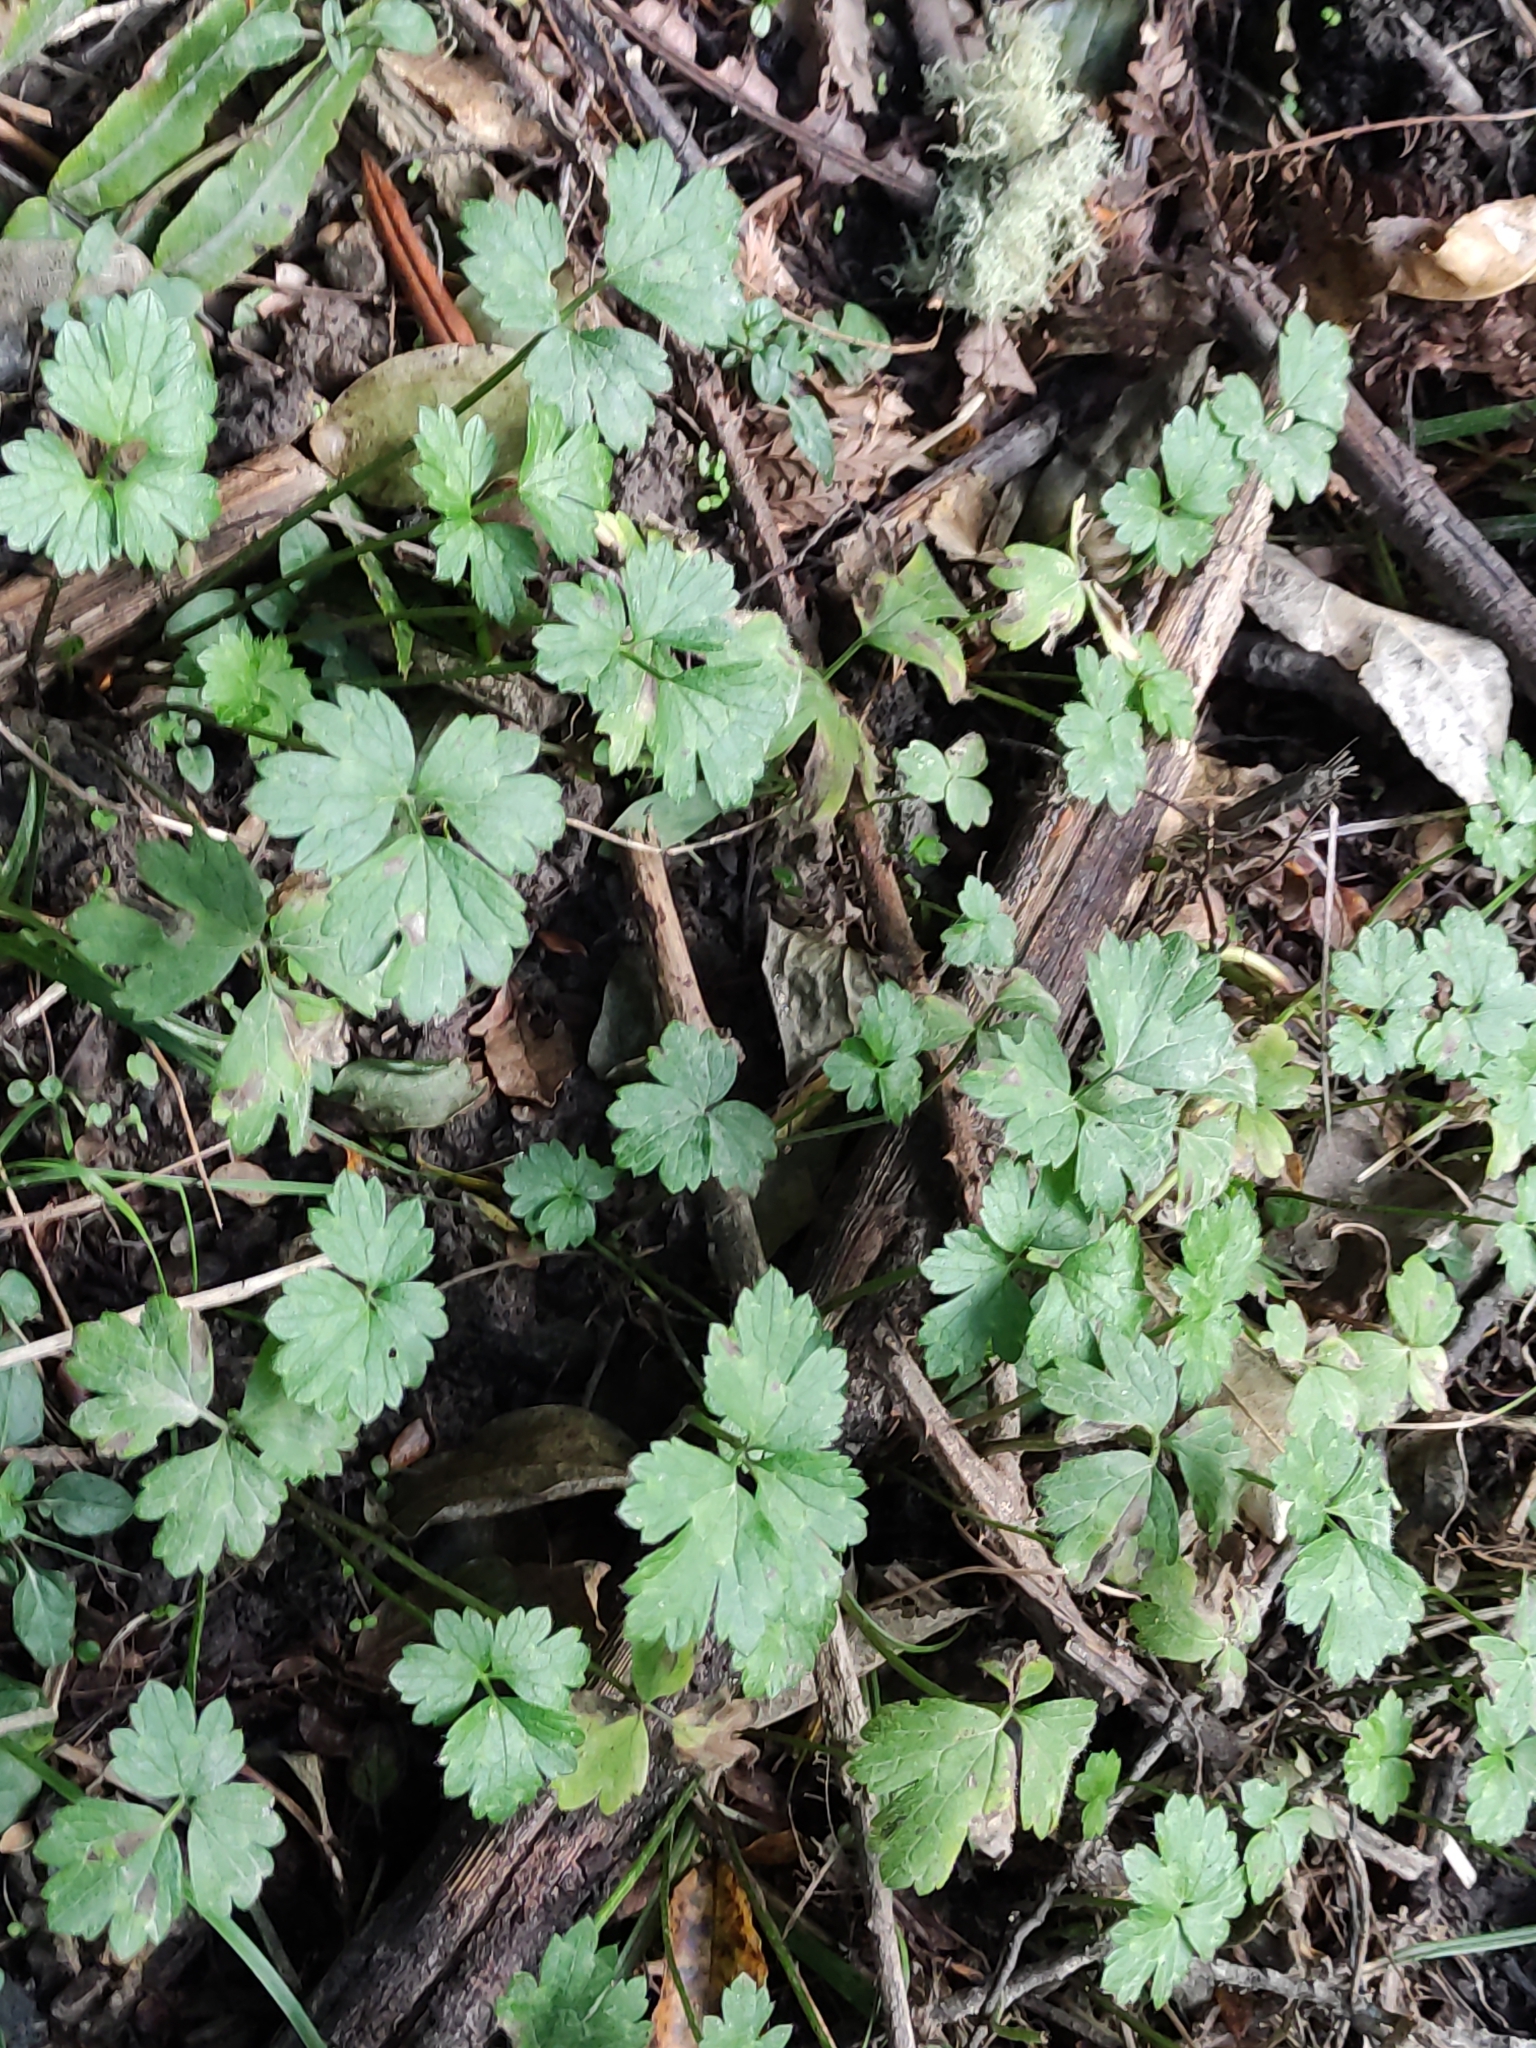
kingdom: Plantae
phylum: Tracheophyta
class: Magnoliopsida
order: Ranunculales
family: Ranunculaceae
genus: Ranunculus
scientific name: Ranunculus repens
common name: Creeping buttercup
